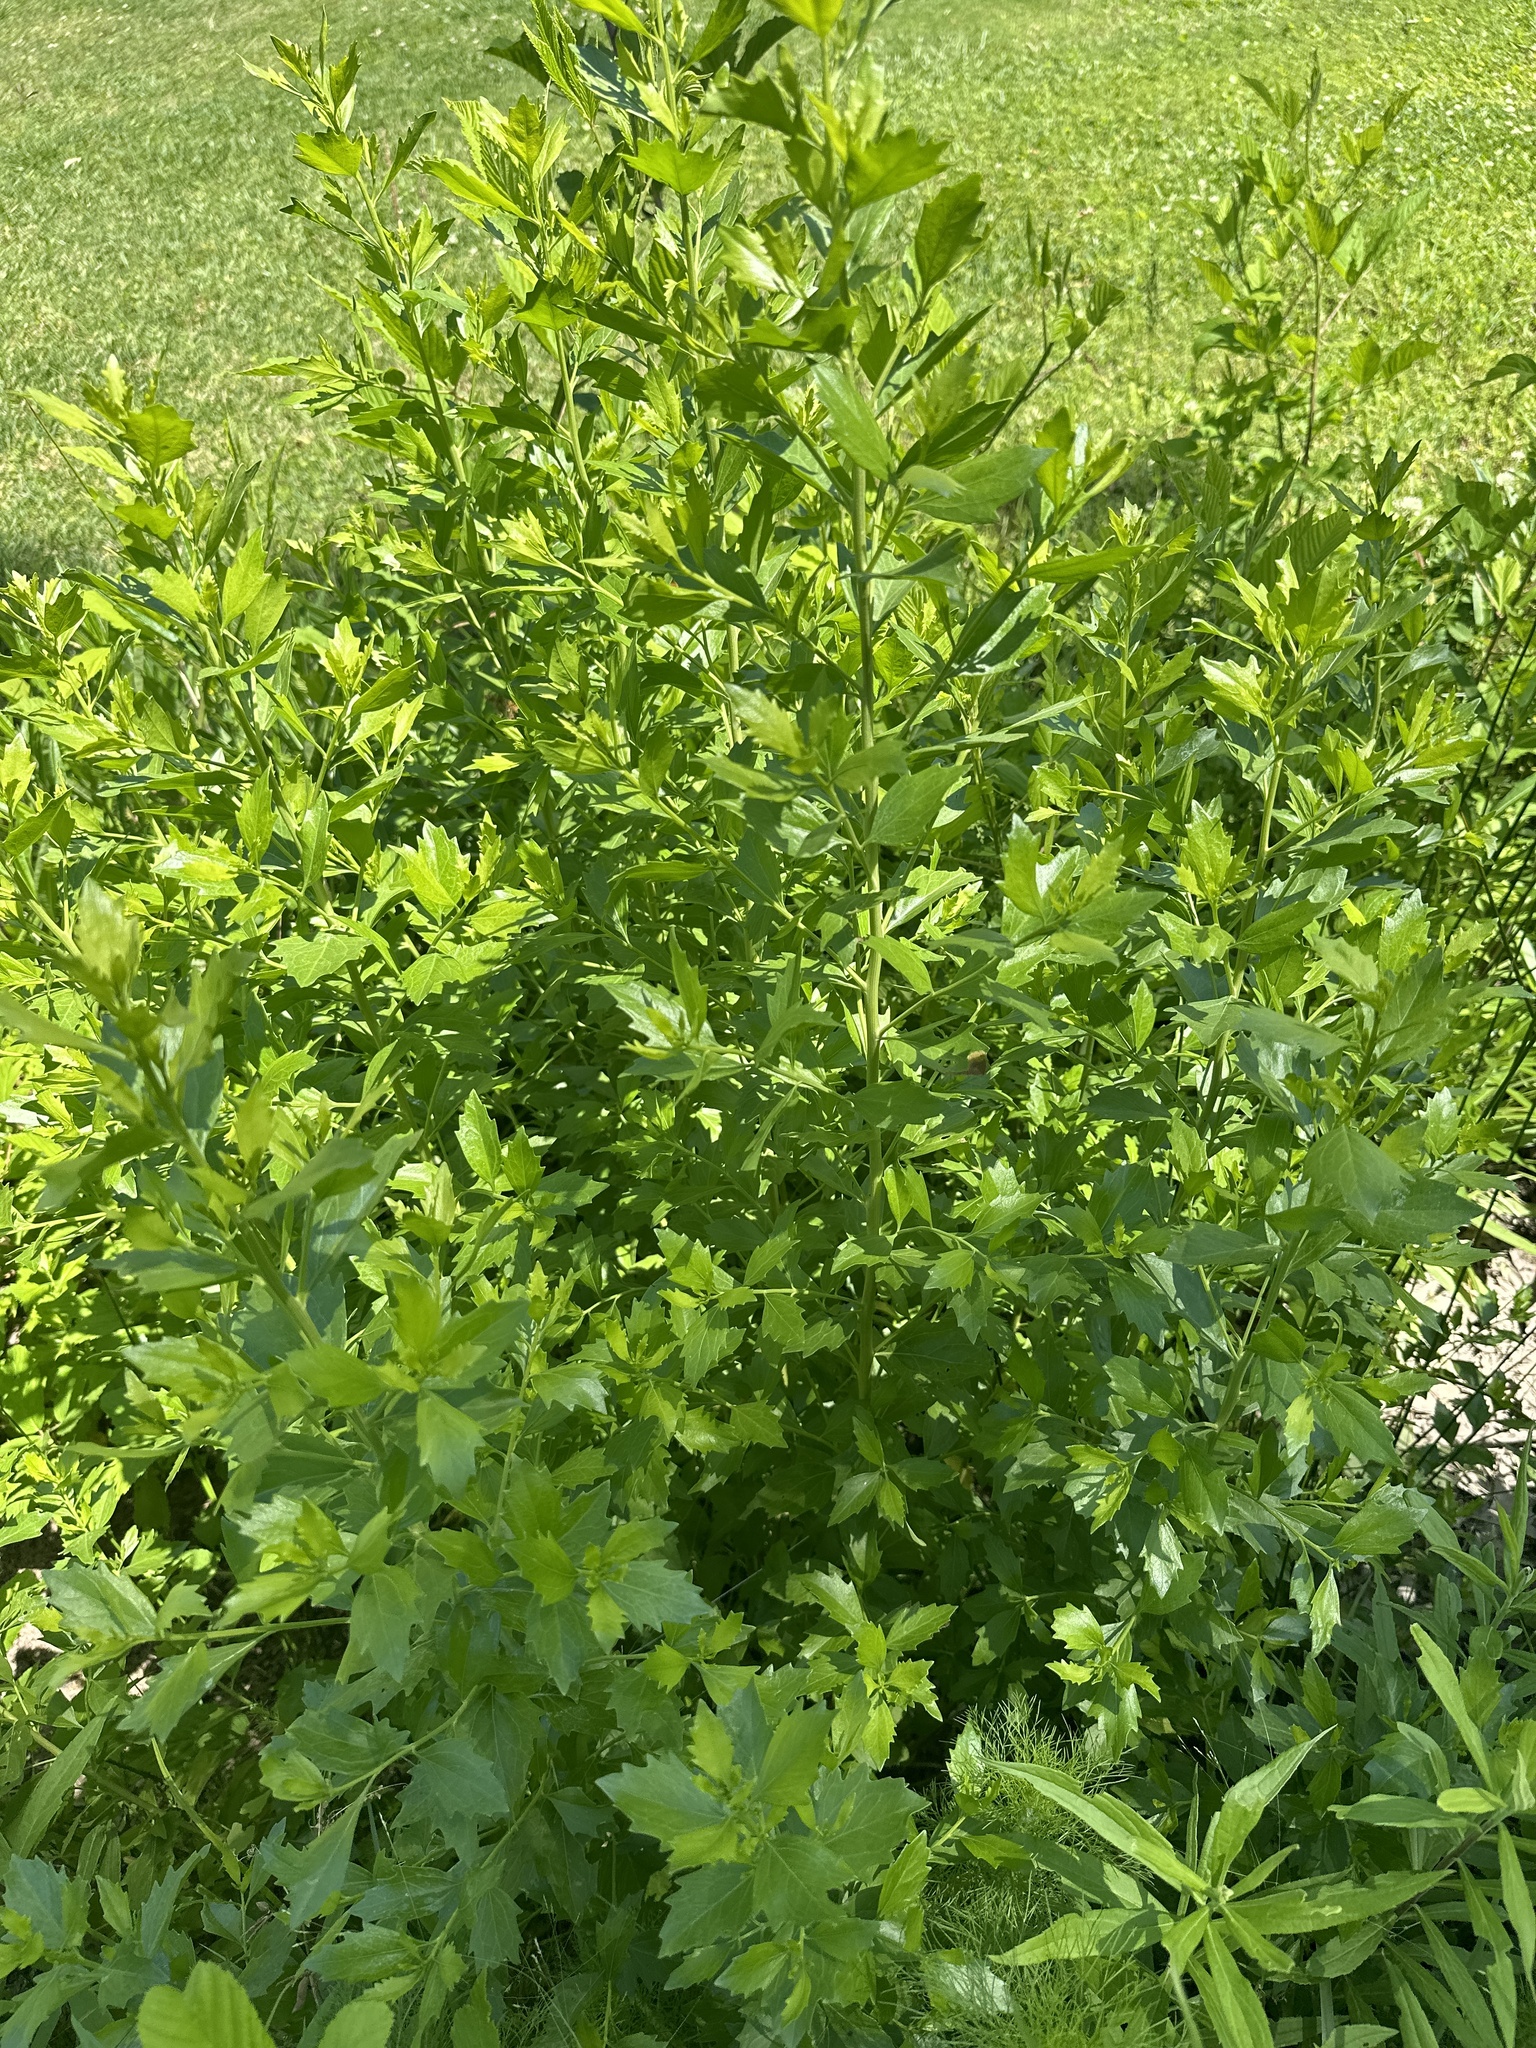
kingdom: Plantae
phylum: Tracheophyta
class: Magnoliopsida
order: Asterales
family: Asteraceae
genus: Baccharis
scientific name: Baccharis halimifolia
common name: Eastern baccharis
